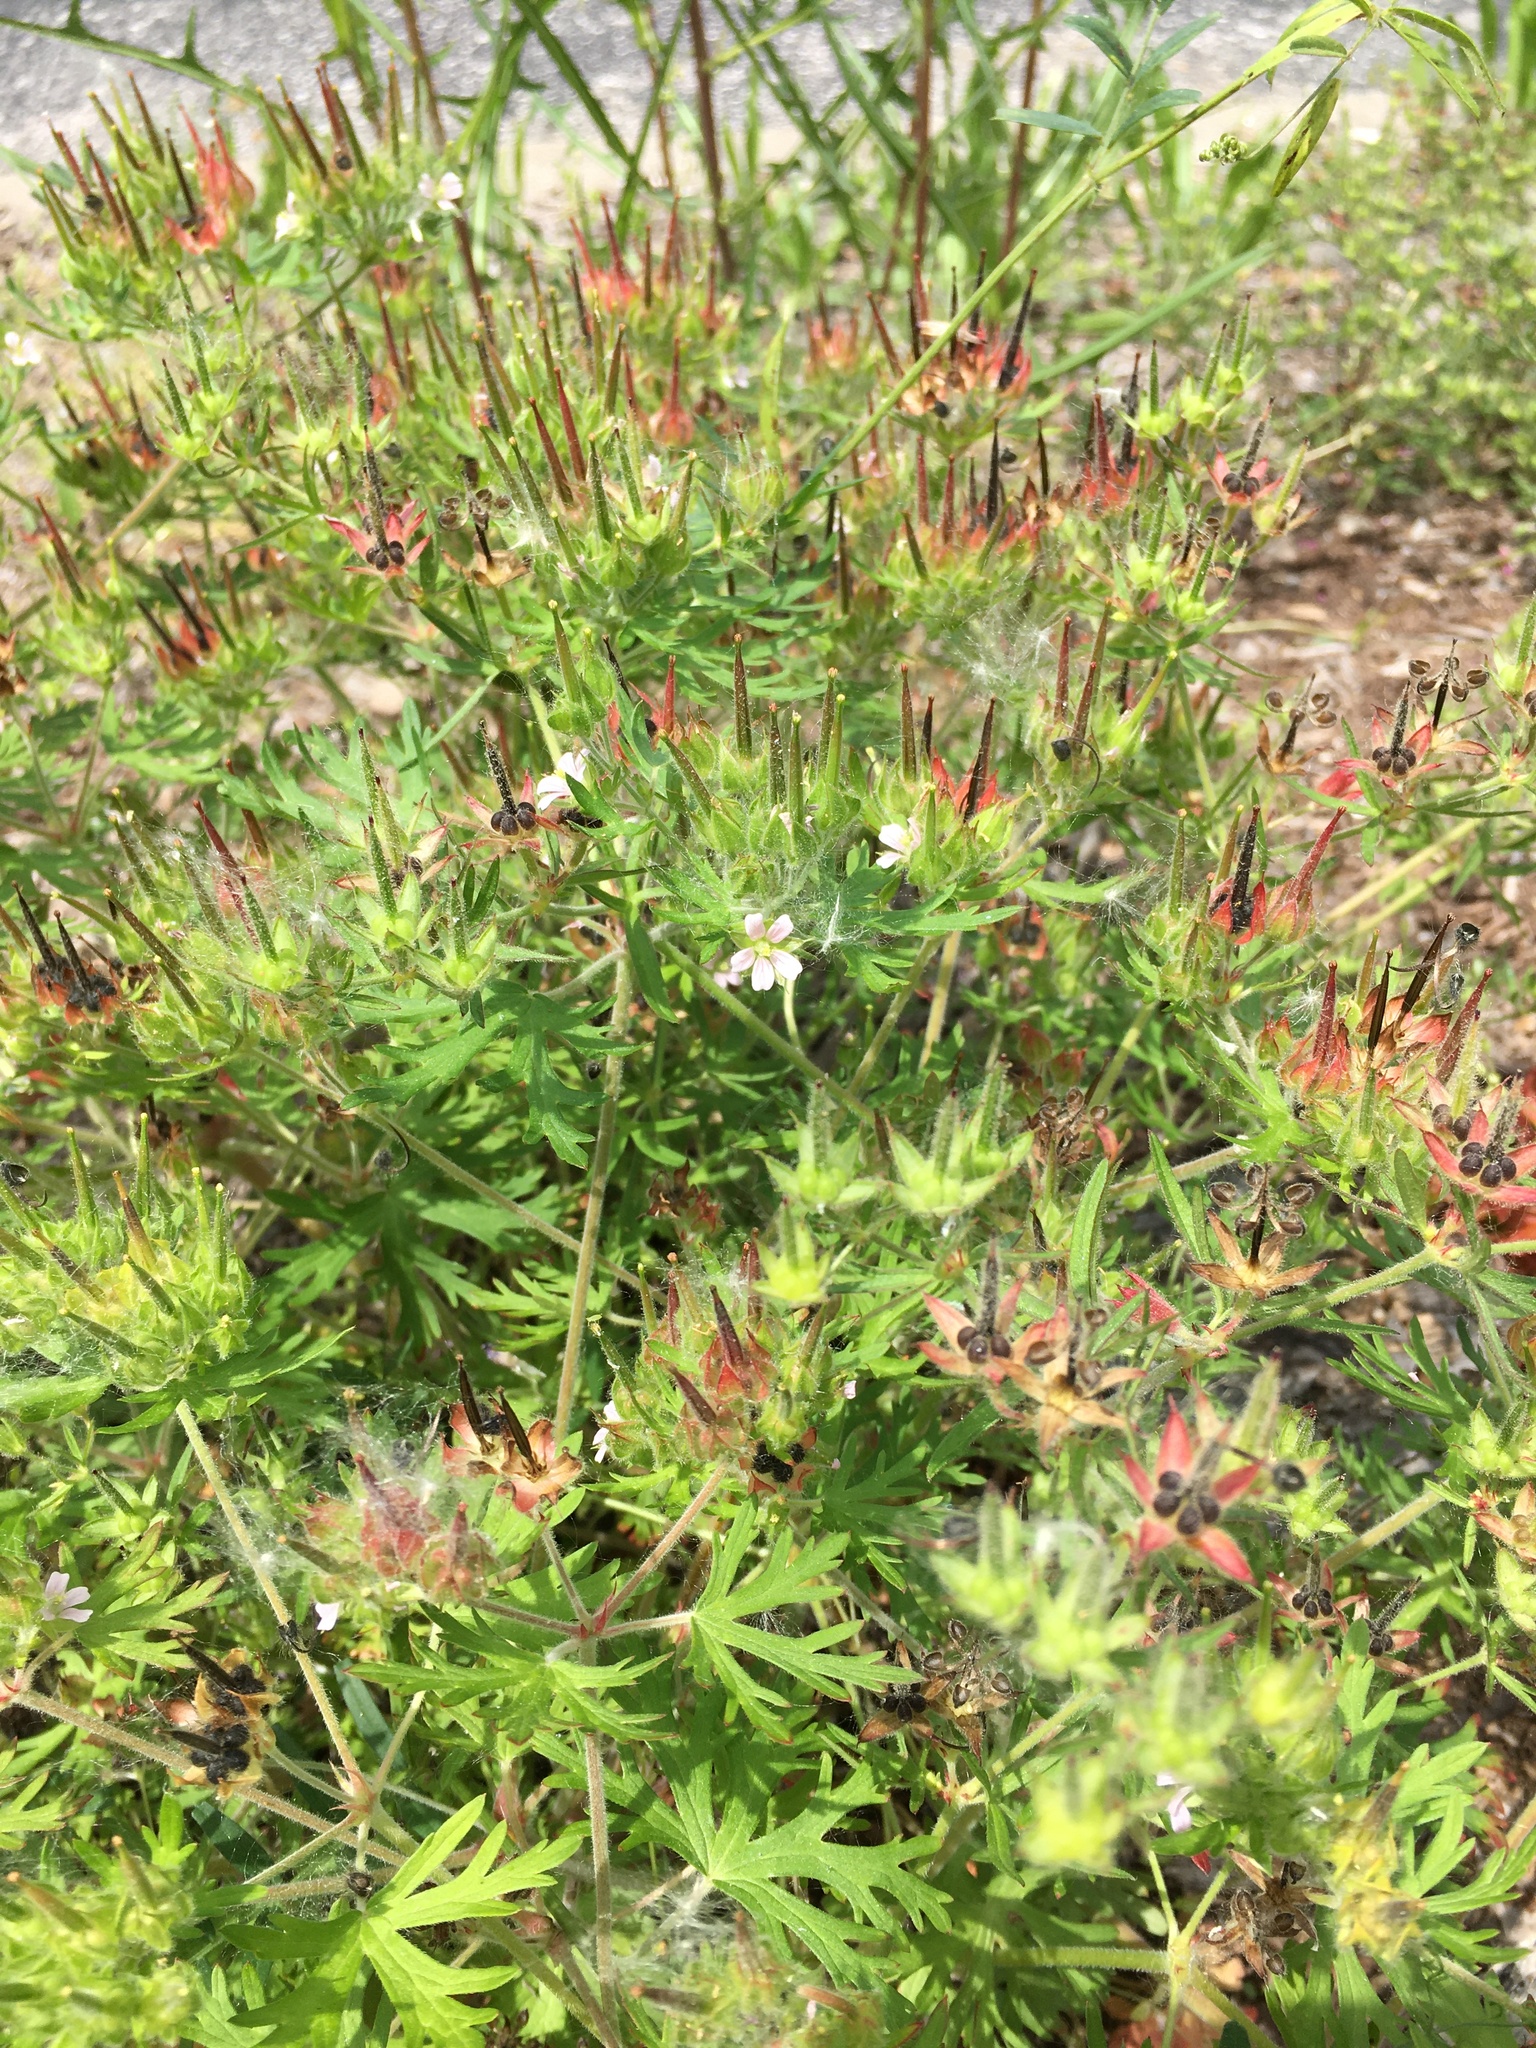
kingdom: Plantae
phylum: Tracheophyta
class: Magnoliopsida
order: Geraniales
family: Geraniaceae
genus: Geranium
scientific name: Geranium carolinianum
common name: Carolina crane's-bill
